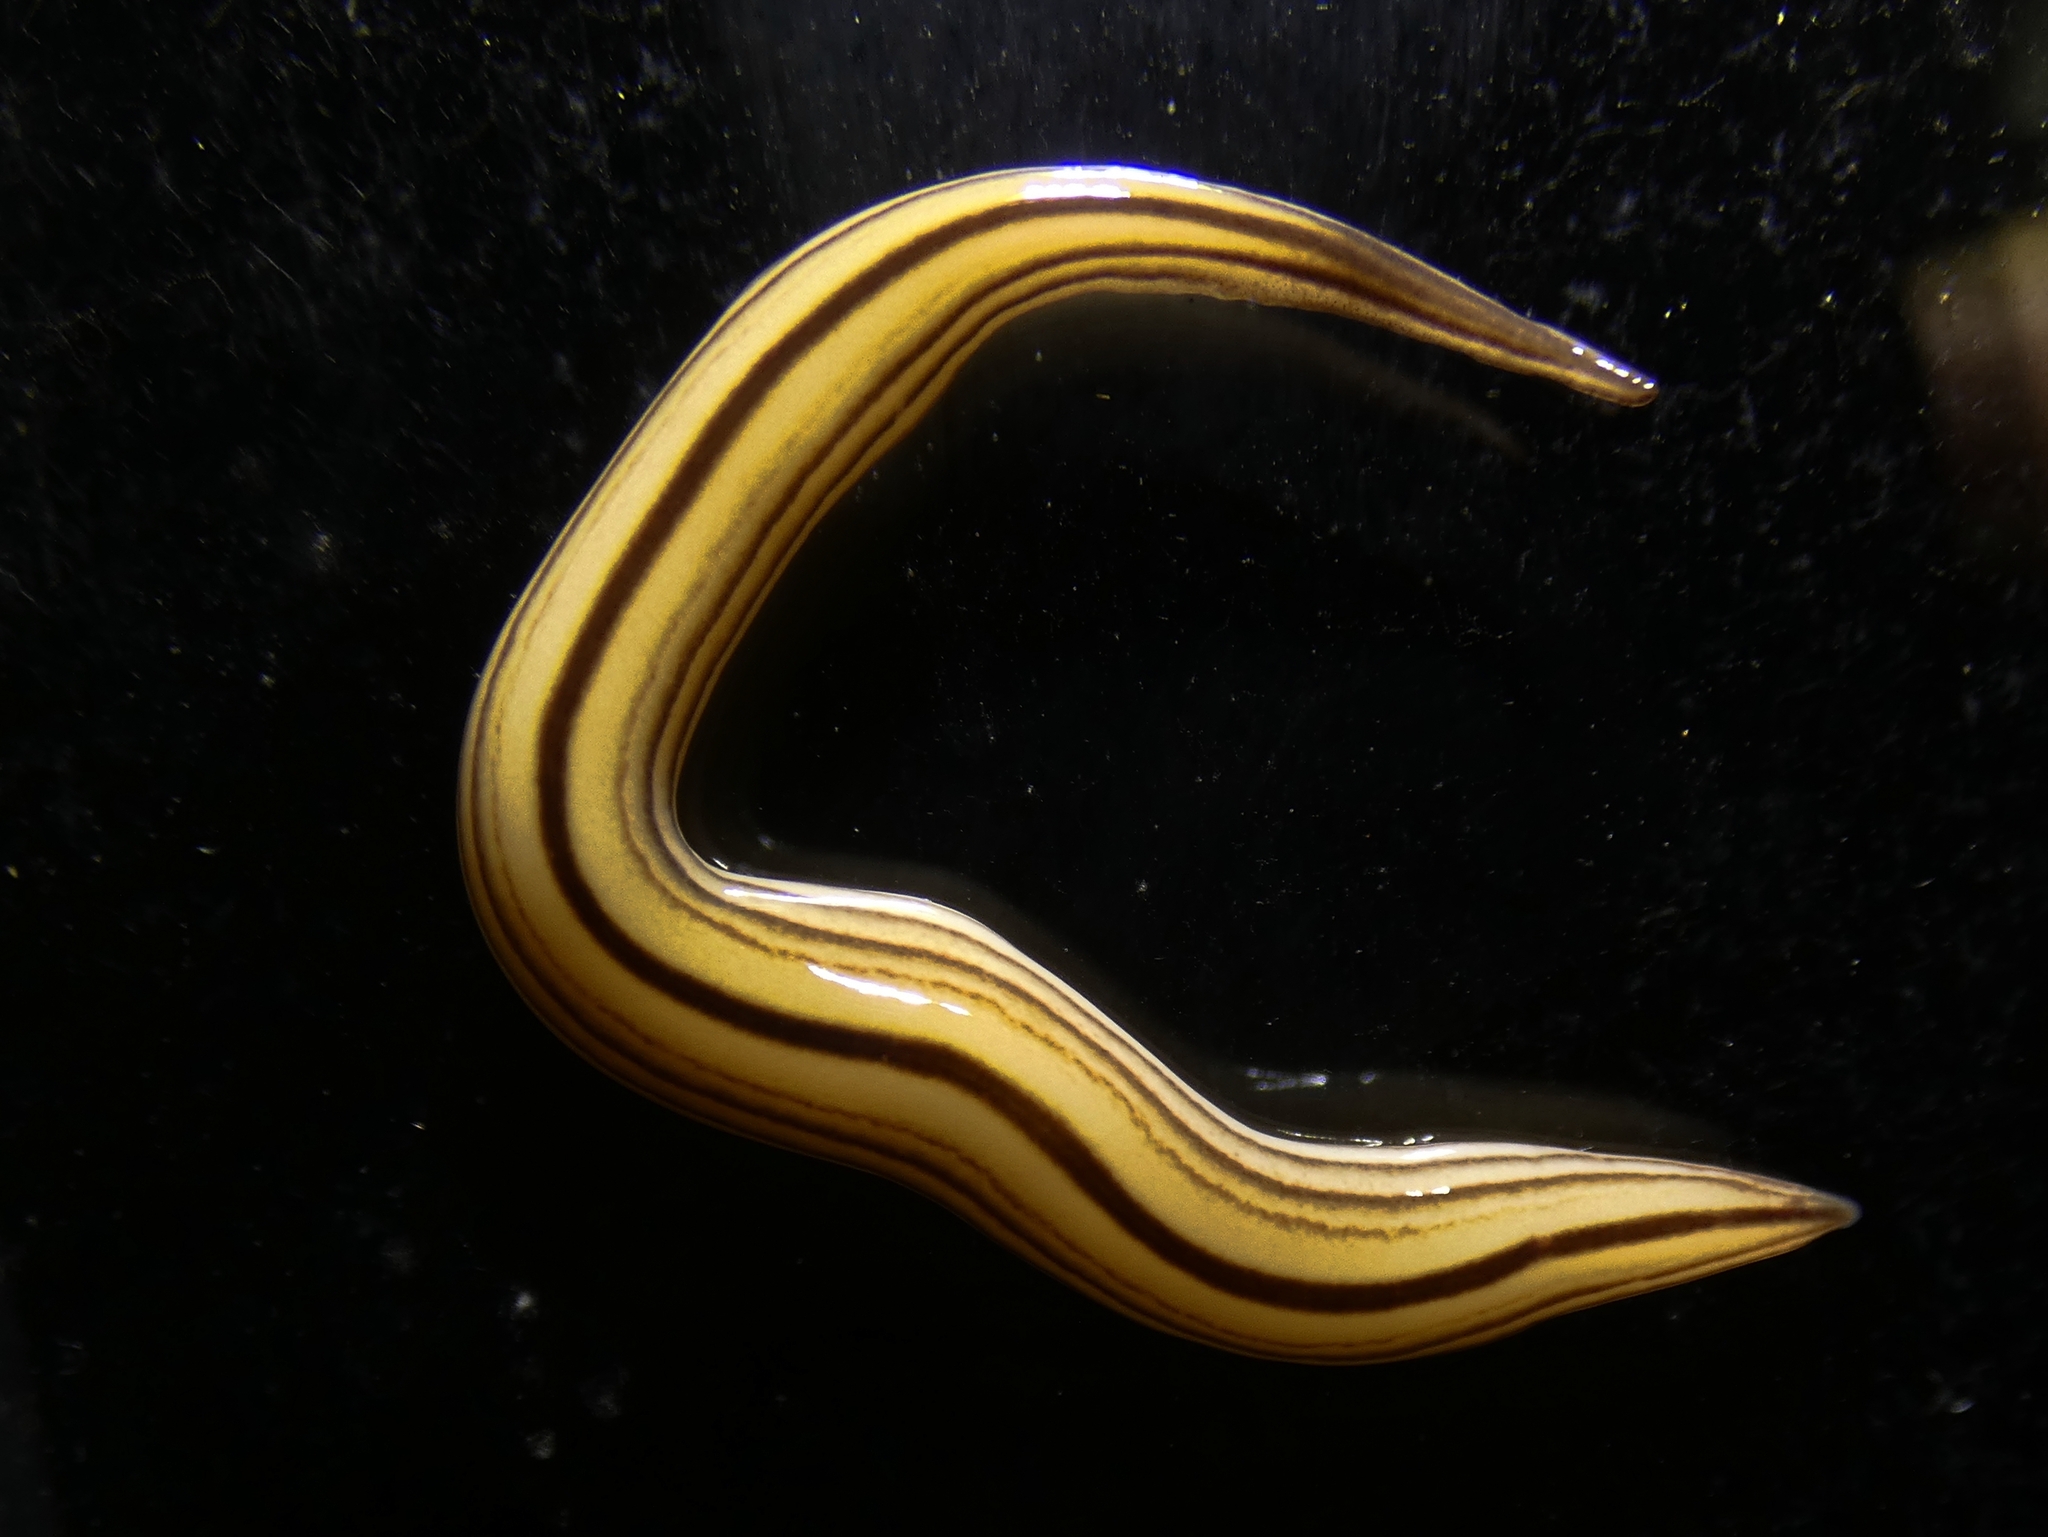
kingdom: Animalia
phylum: Platyhelminthes
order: Tricladida
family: Geoplanidae
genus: Australopacifica
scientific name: Australopacifica regina
